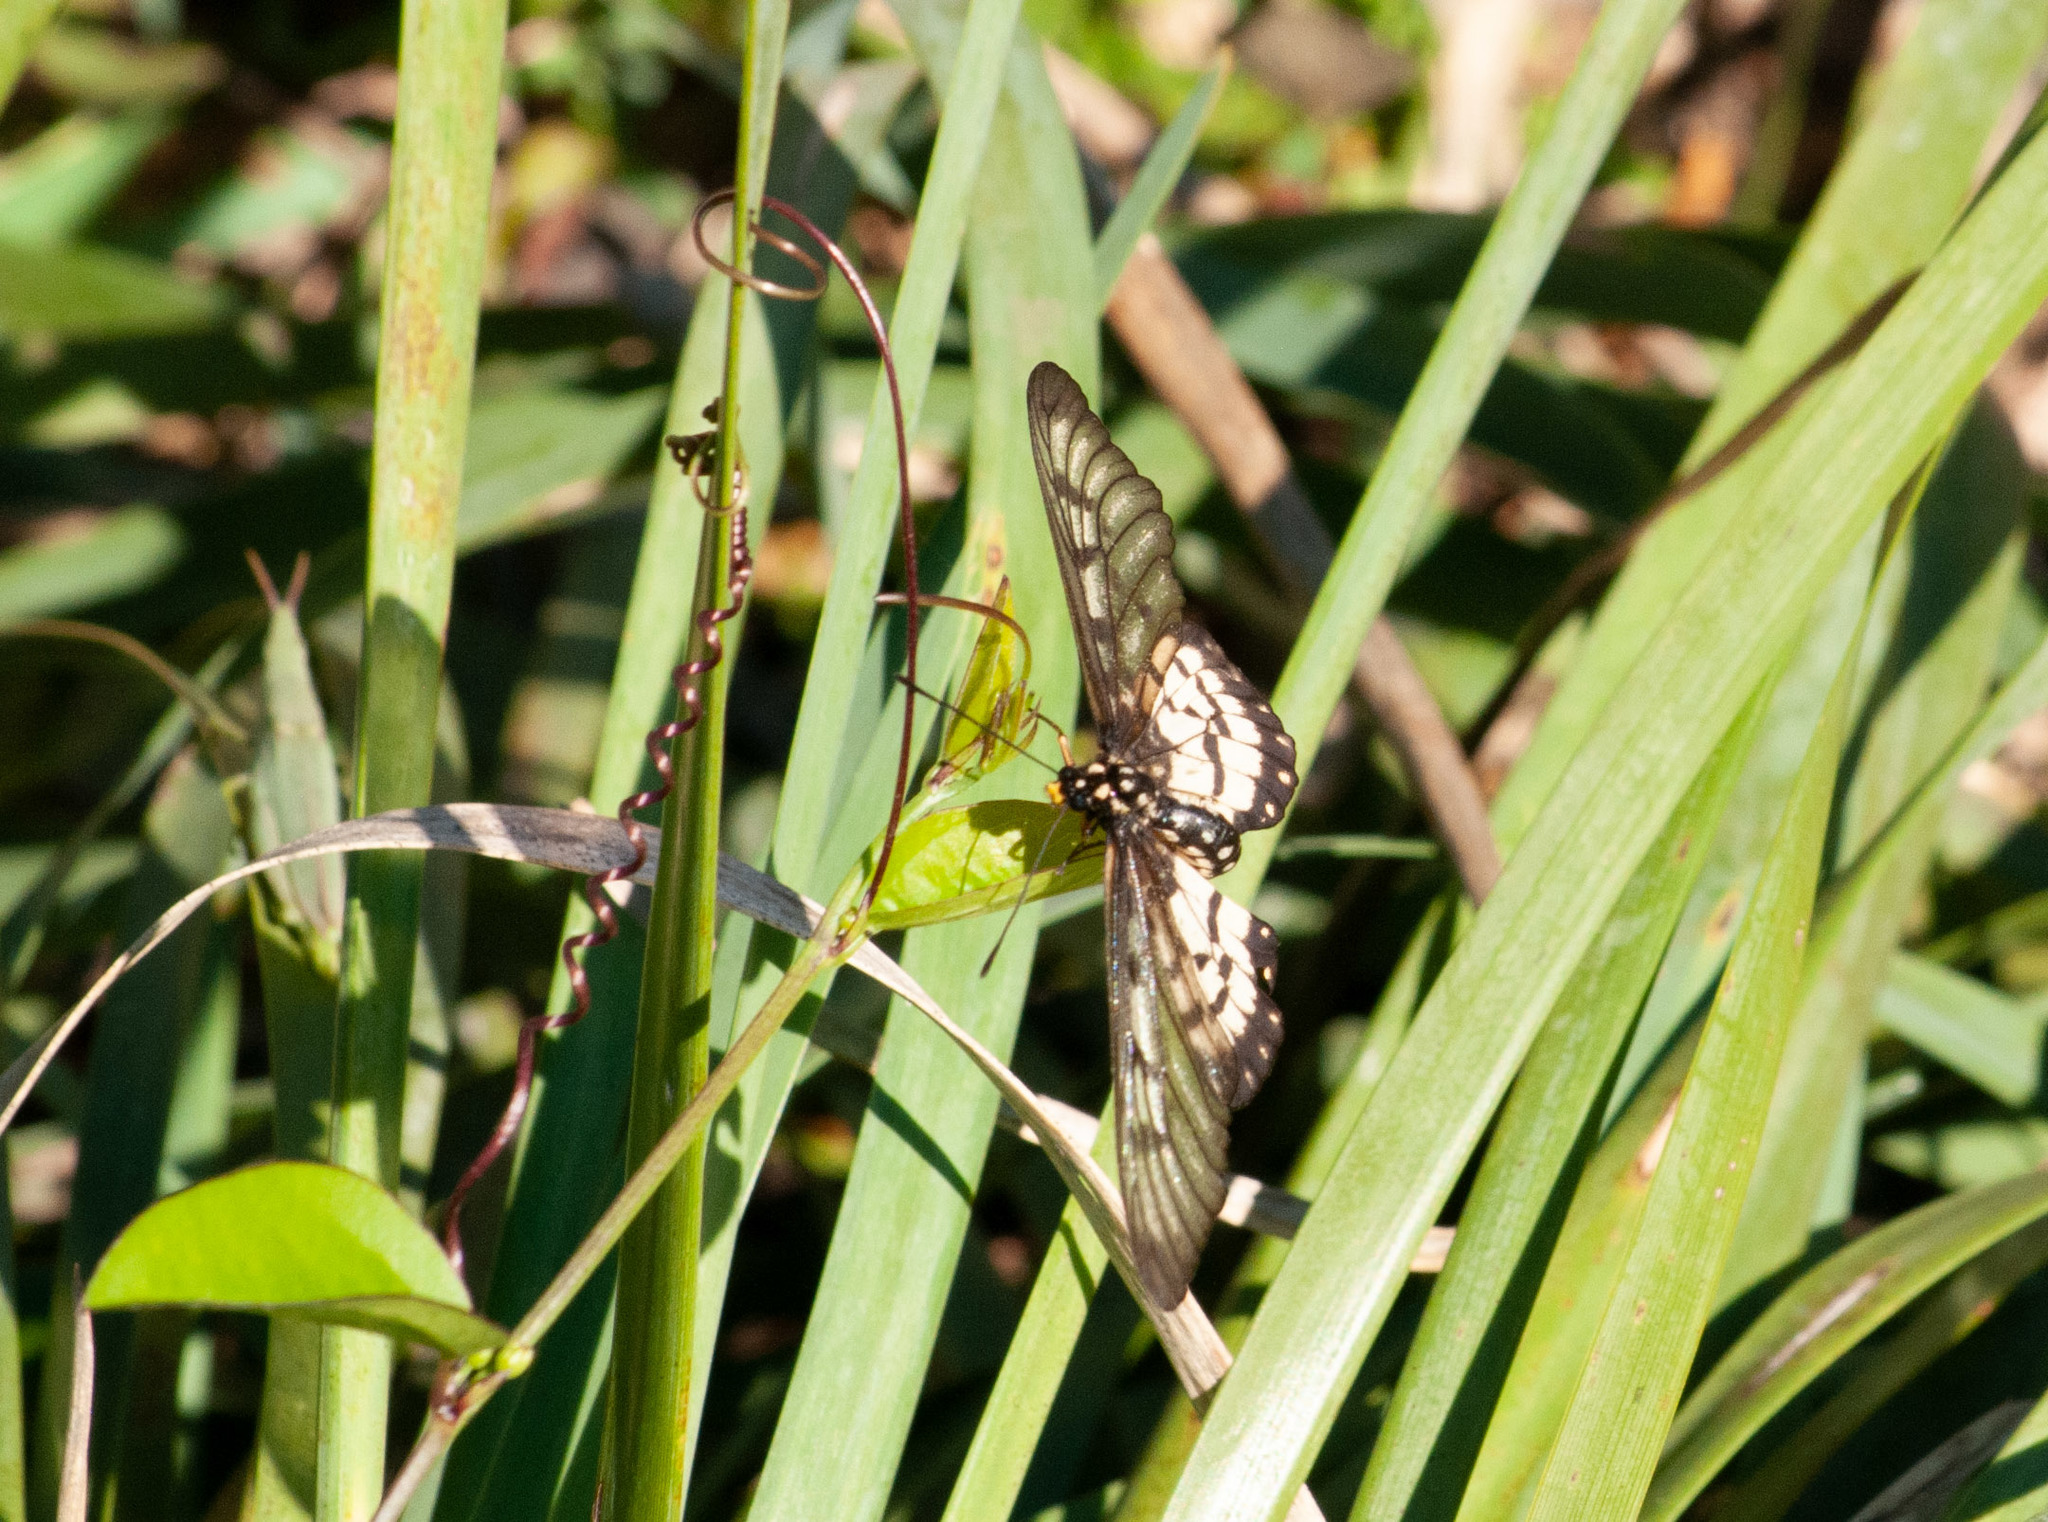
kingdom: Animalia
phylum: Arthropoda
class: Insecta
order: Lepidoptera
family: Nymphalidae
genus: Acraea
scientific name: Acraea andromacha
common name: Glasswing
